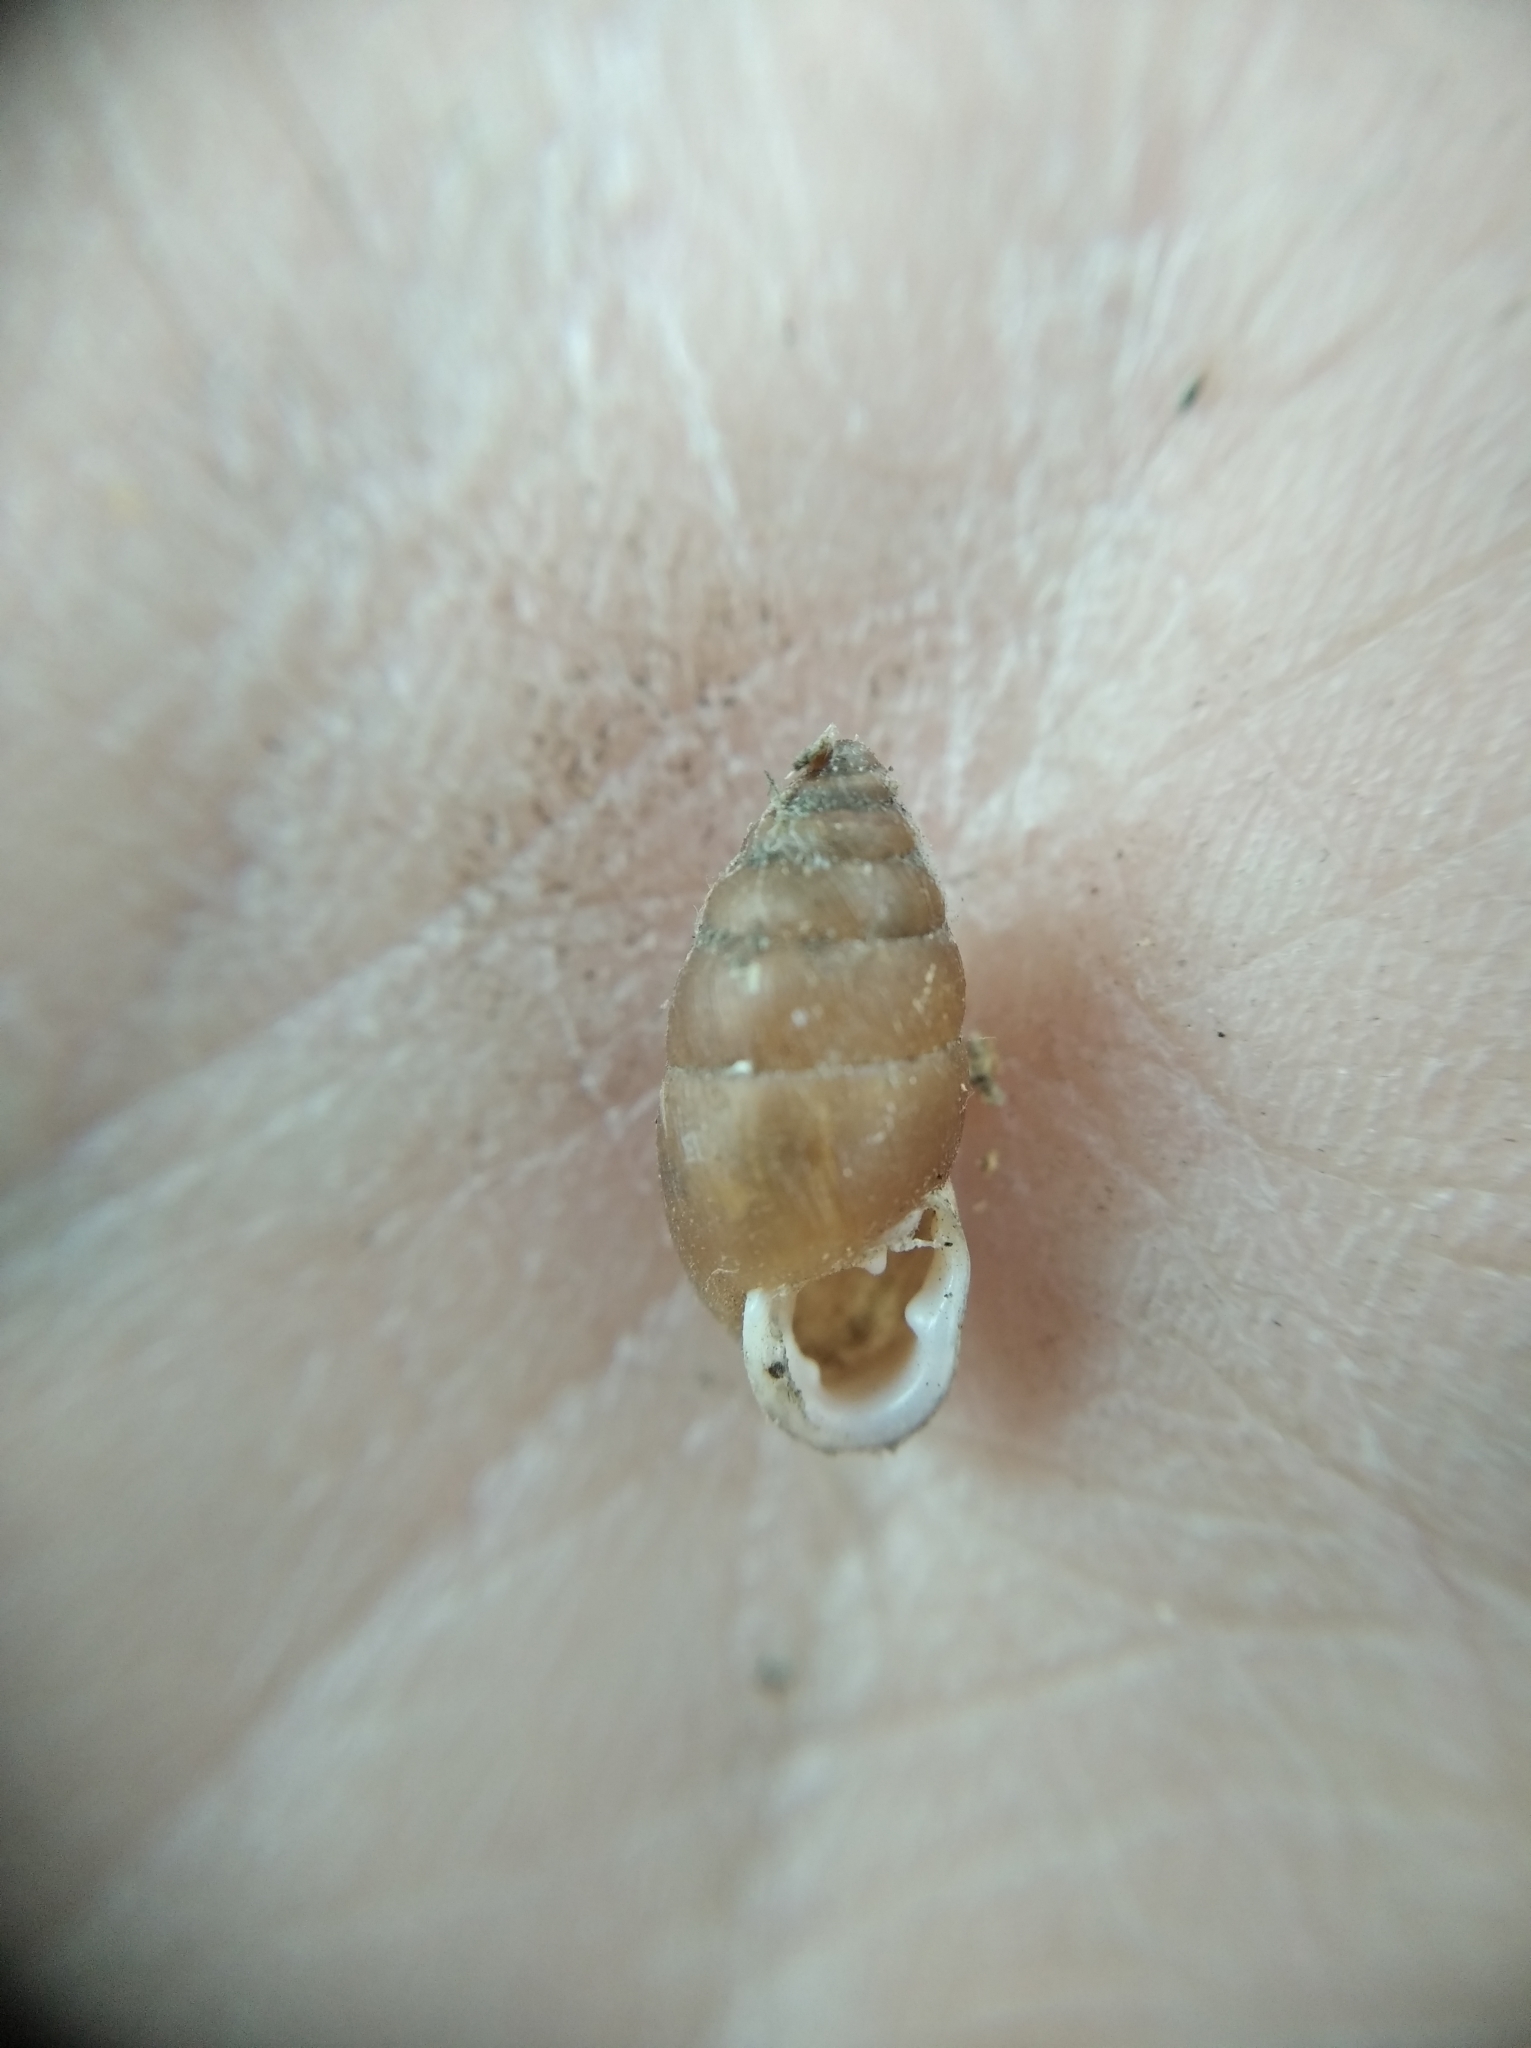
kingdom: Animalia
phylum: Mollusca
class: Gastropoda
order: Stylommatophora
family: Enidae
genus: Chondrula
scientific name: Chondrula tridens
